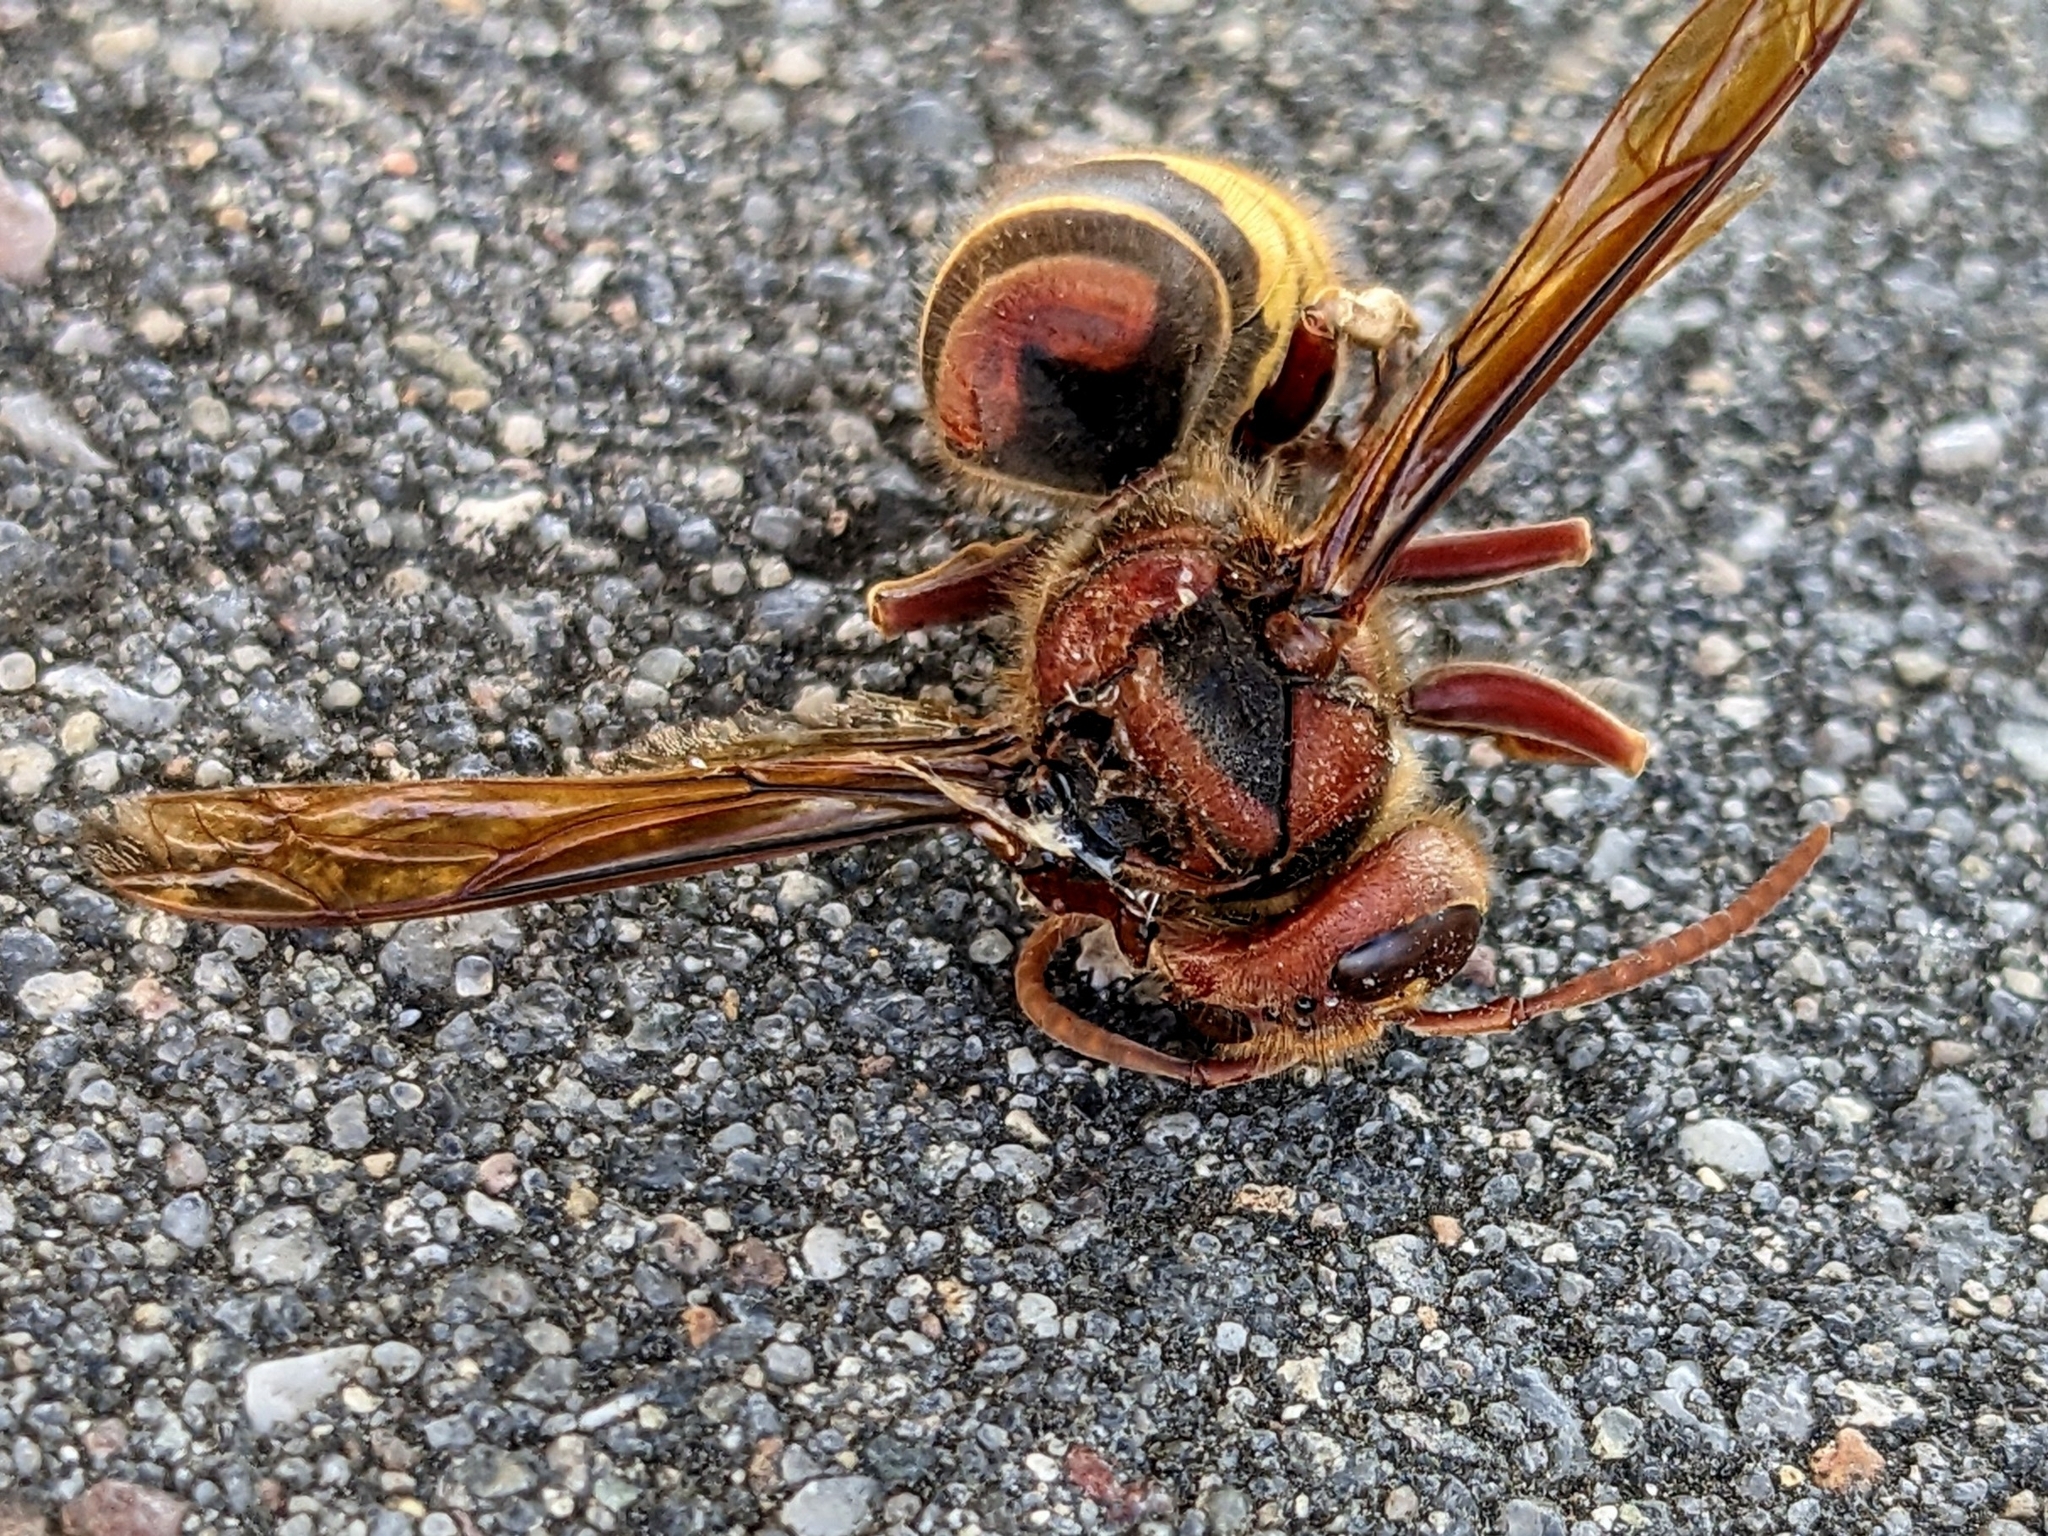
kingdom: Animalia
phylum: Arthropoda
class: Insecta
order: Hymenoptera
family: Vespidae
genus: Vespa
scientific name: Vespa crabro
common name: Hornet
